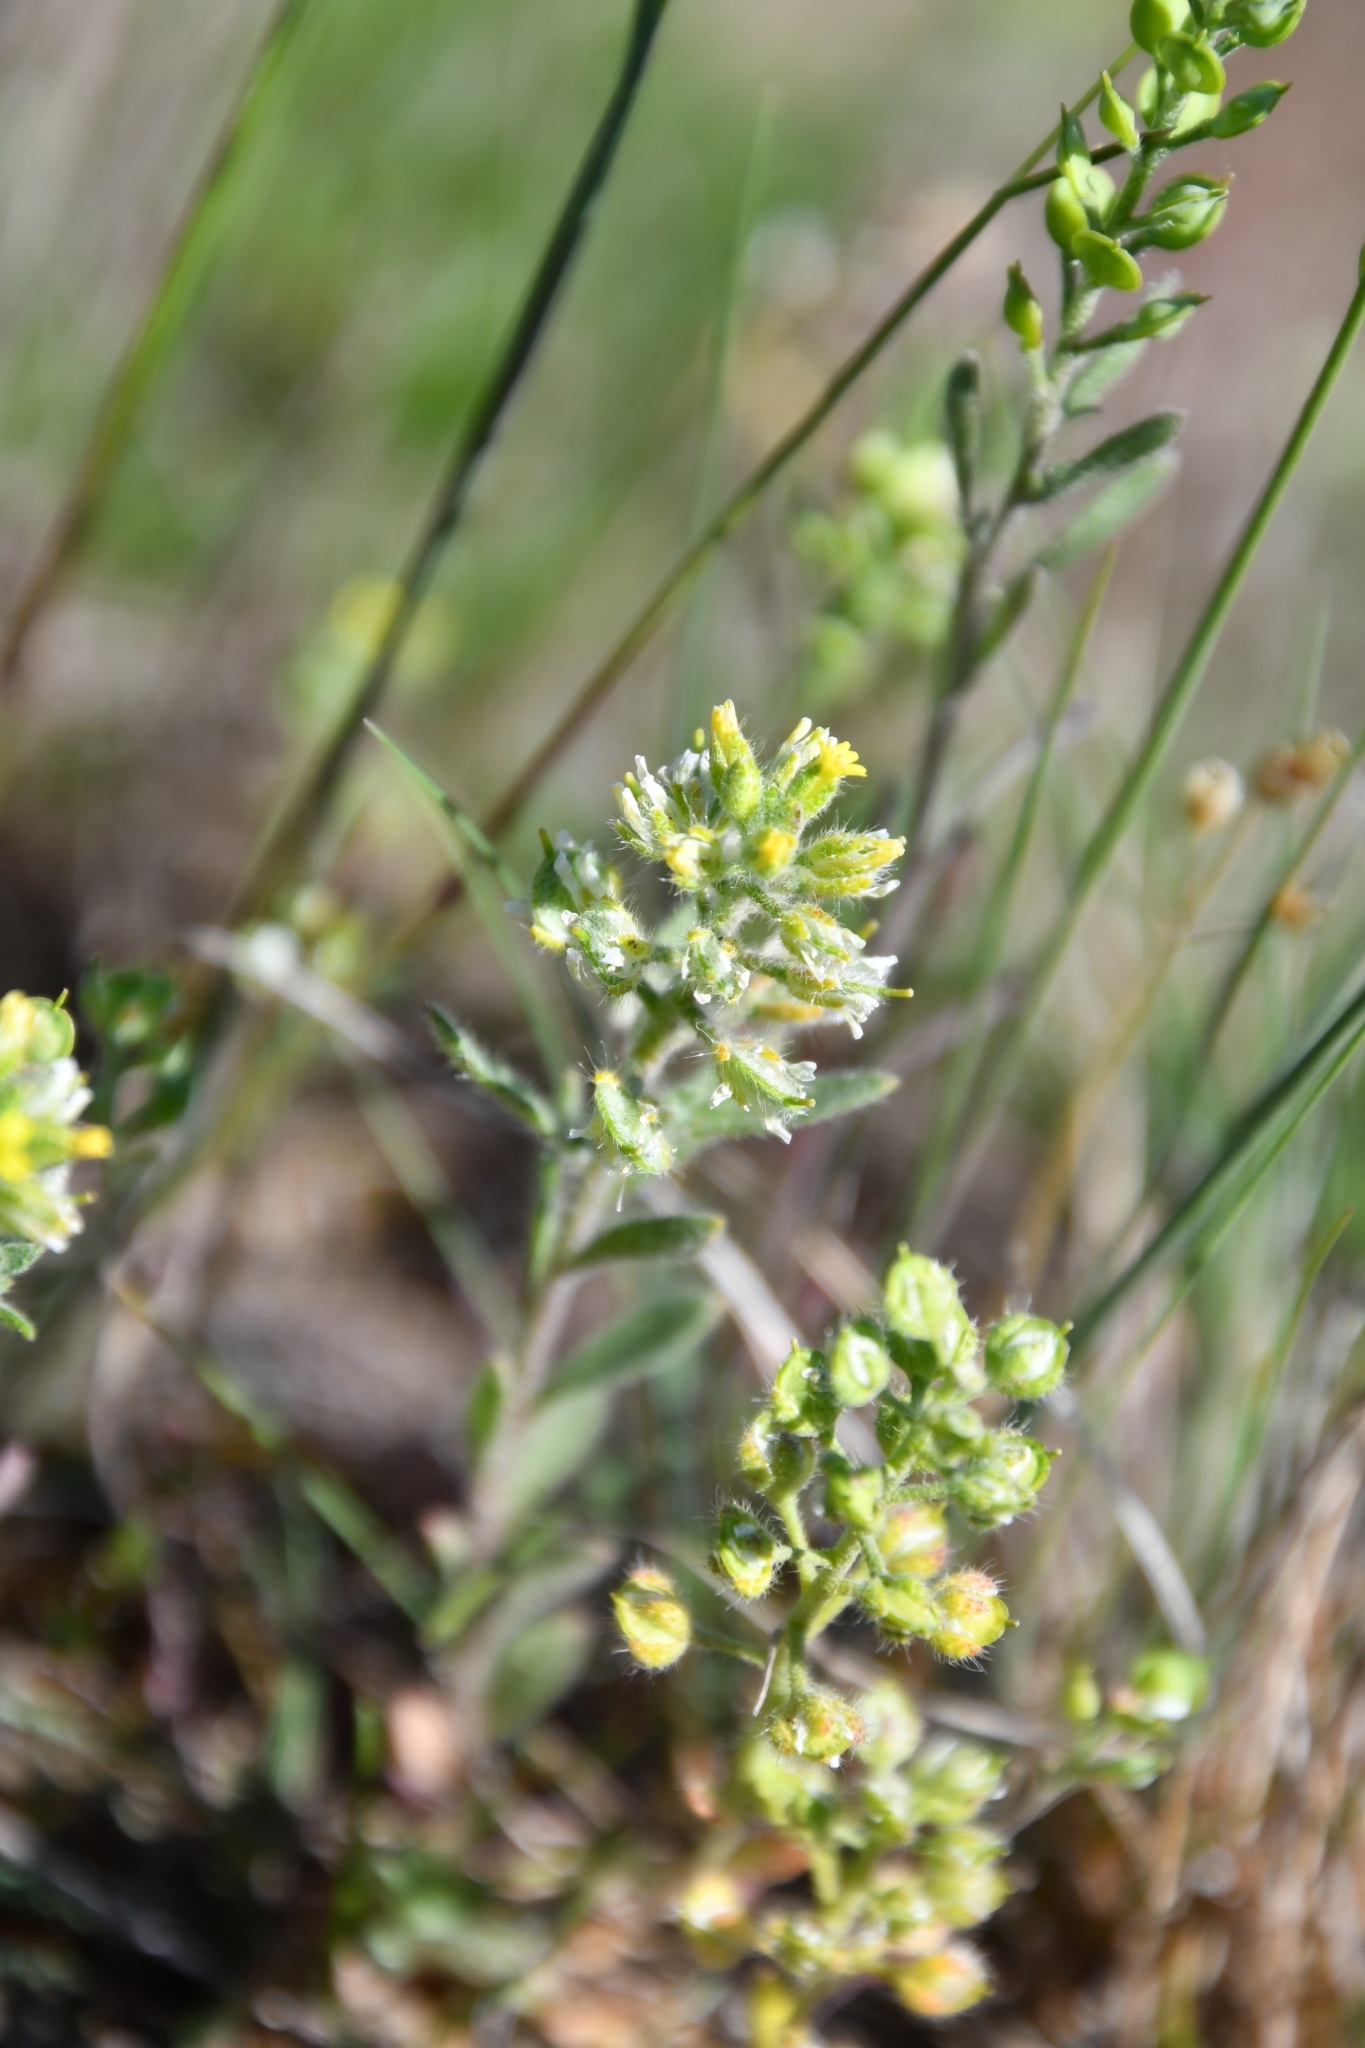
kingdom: Plantae
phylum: Tracheophyta
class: Magnoliopsida
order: Brassicales
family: Brassicaceae
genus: Alyssum
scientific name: Alyssum alyssoides
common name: Small alison
